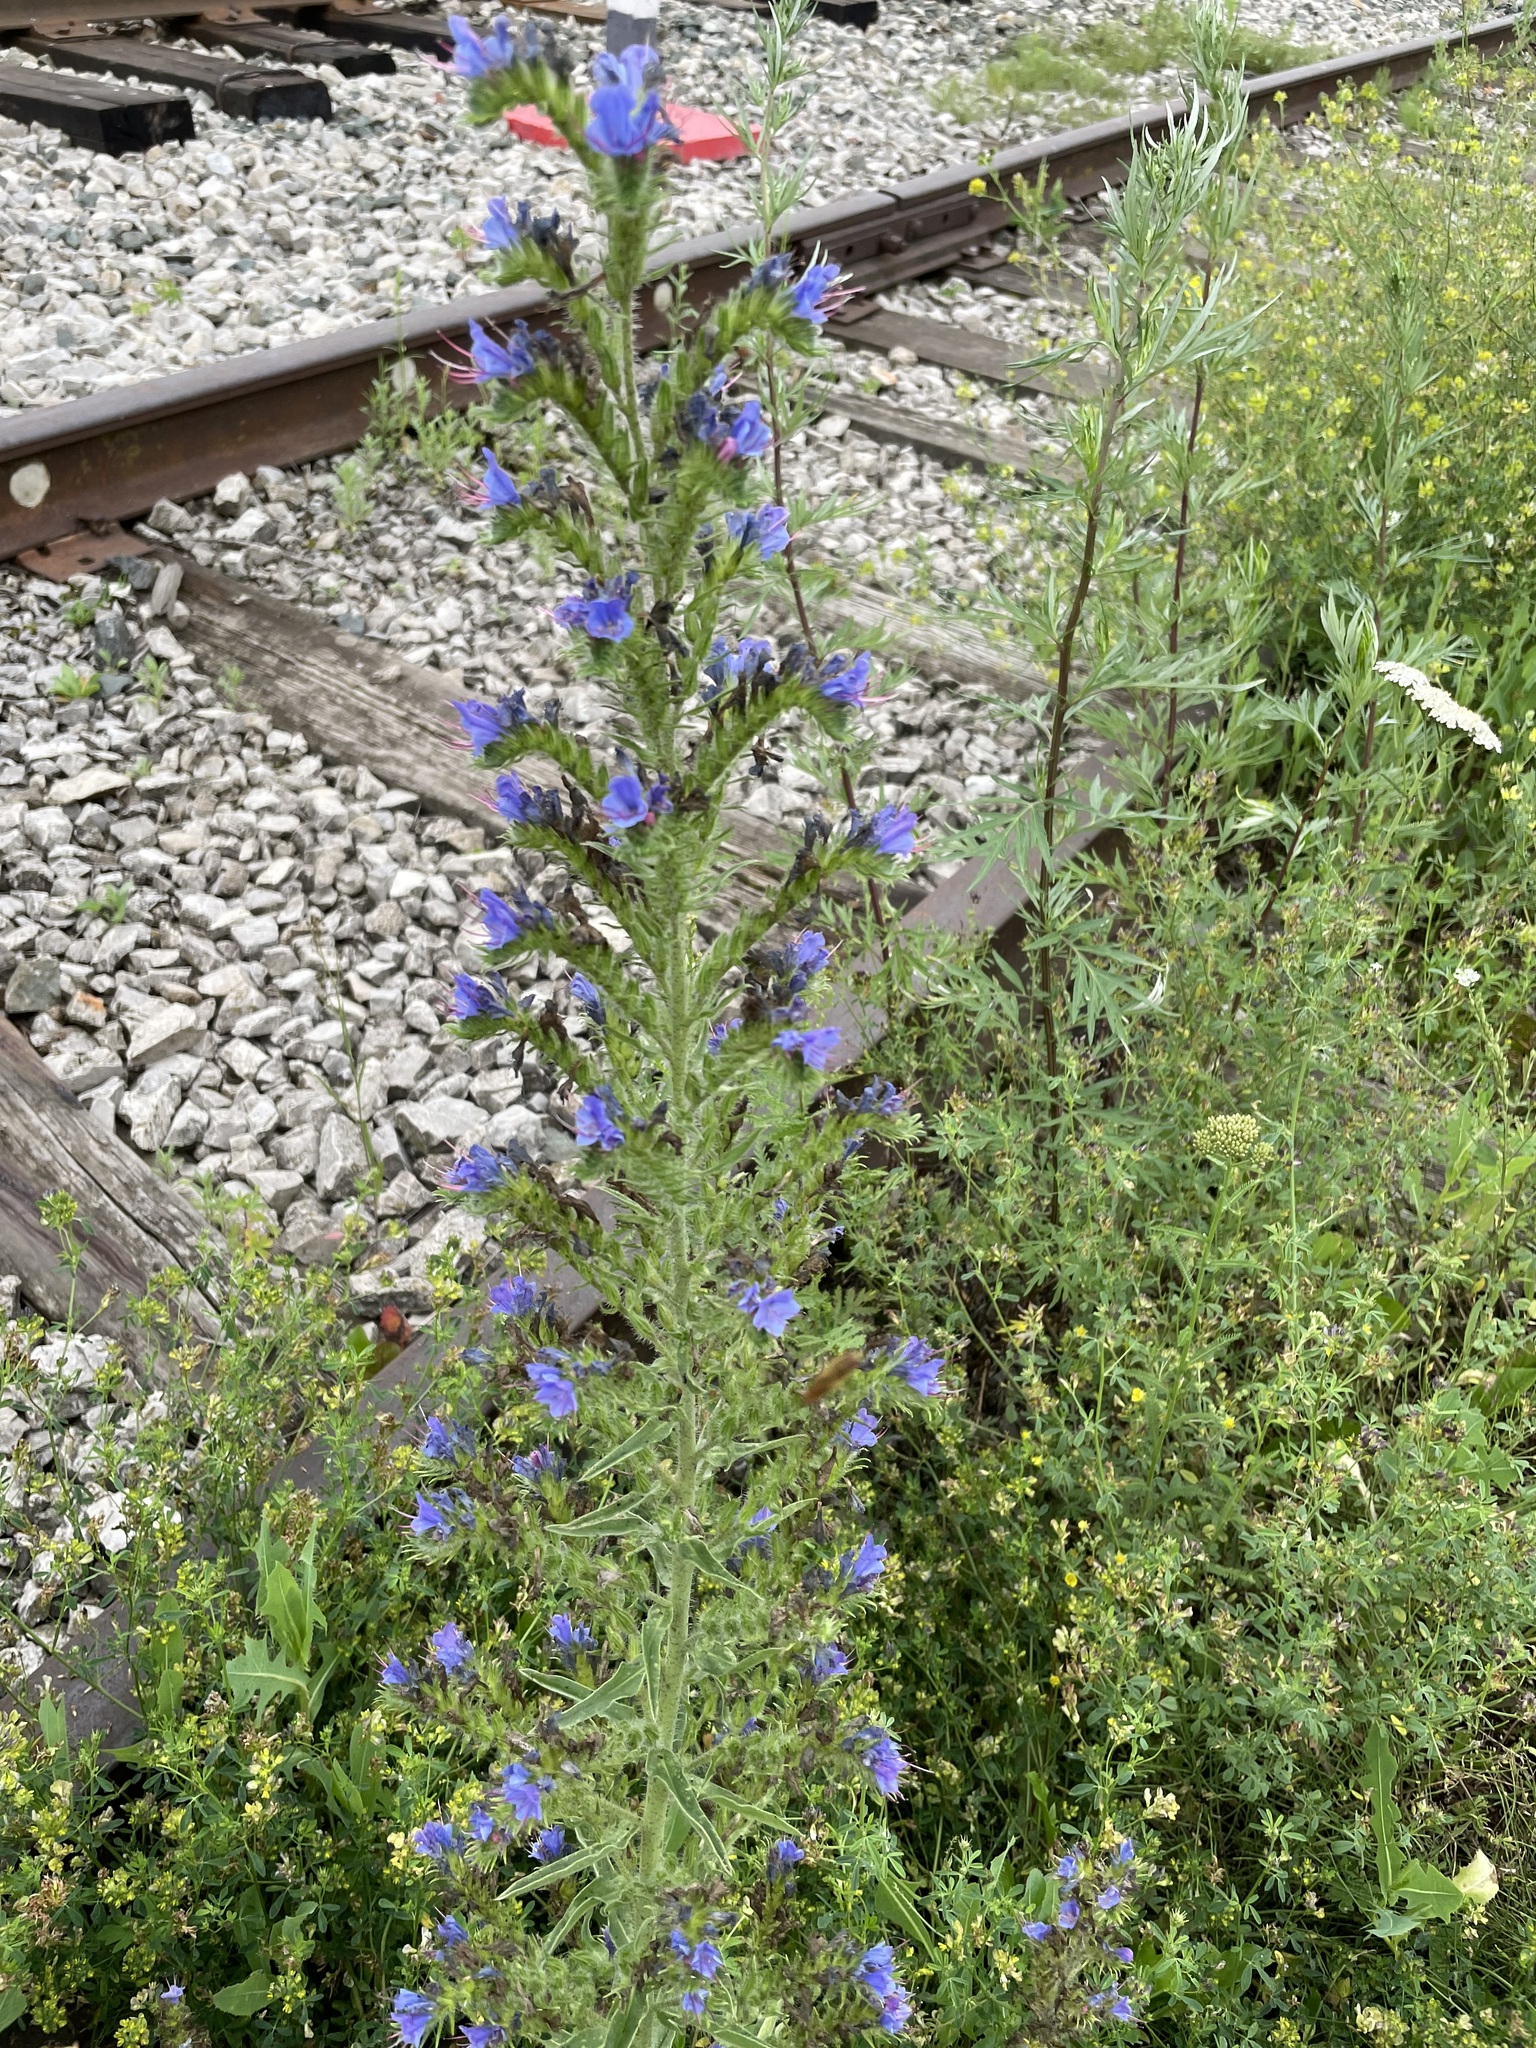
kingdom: Plantae
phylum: Tracheophyta
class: Magnoliopsida
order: Boraginales
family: Boraginaceae
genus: Echium
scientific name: Echium vulgare
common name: Common viper's bugloss
